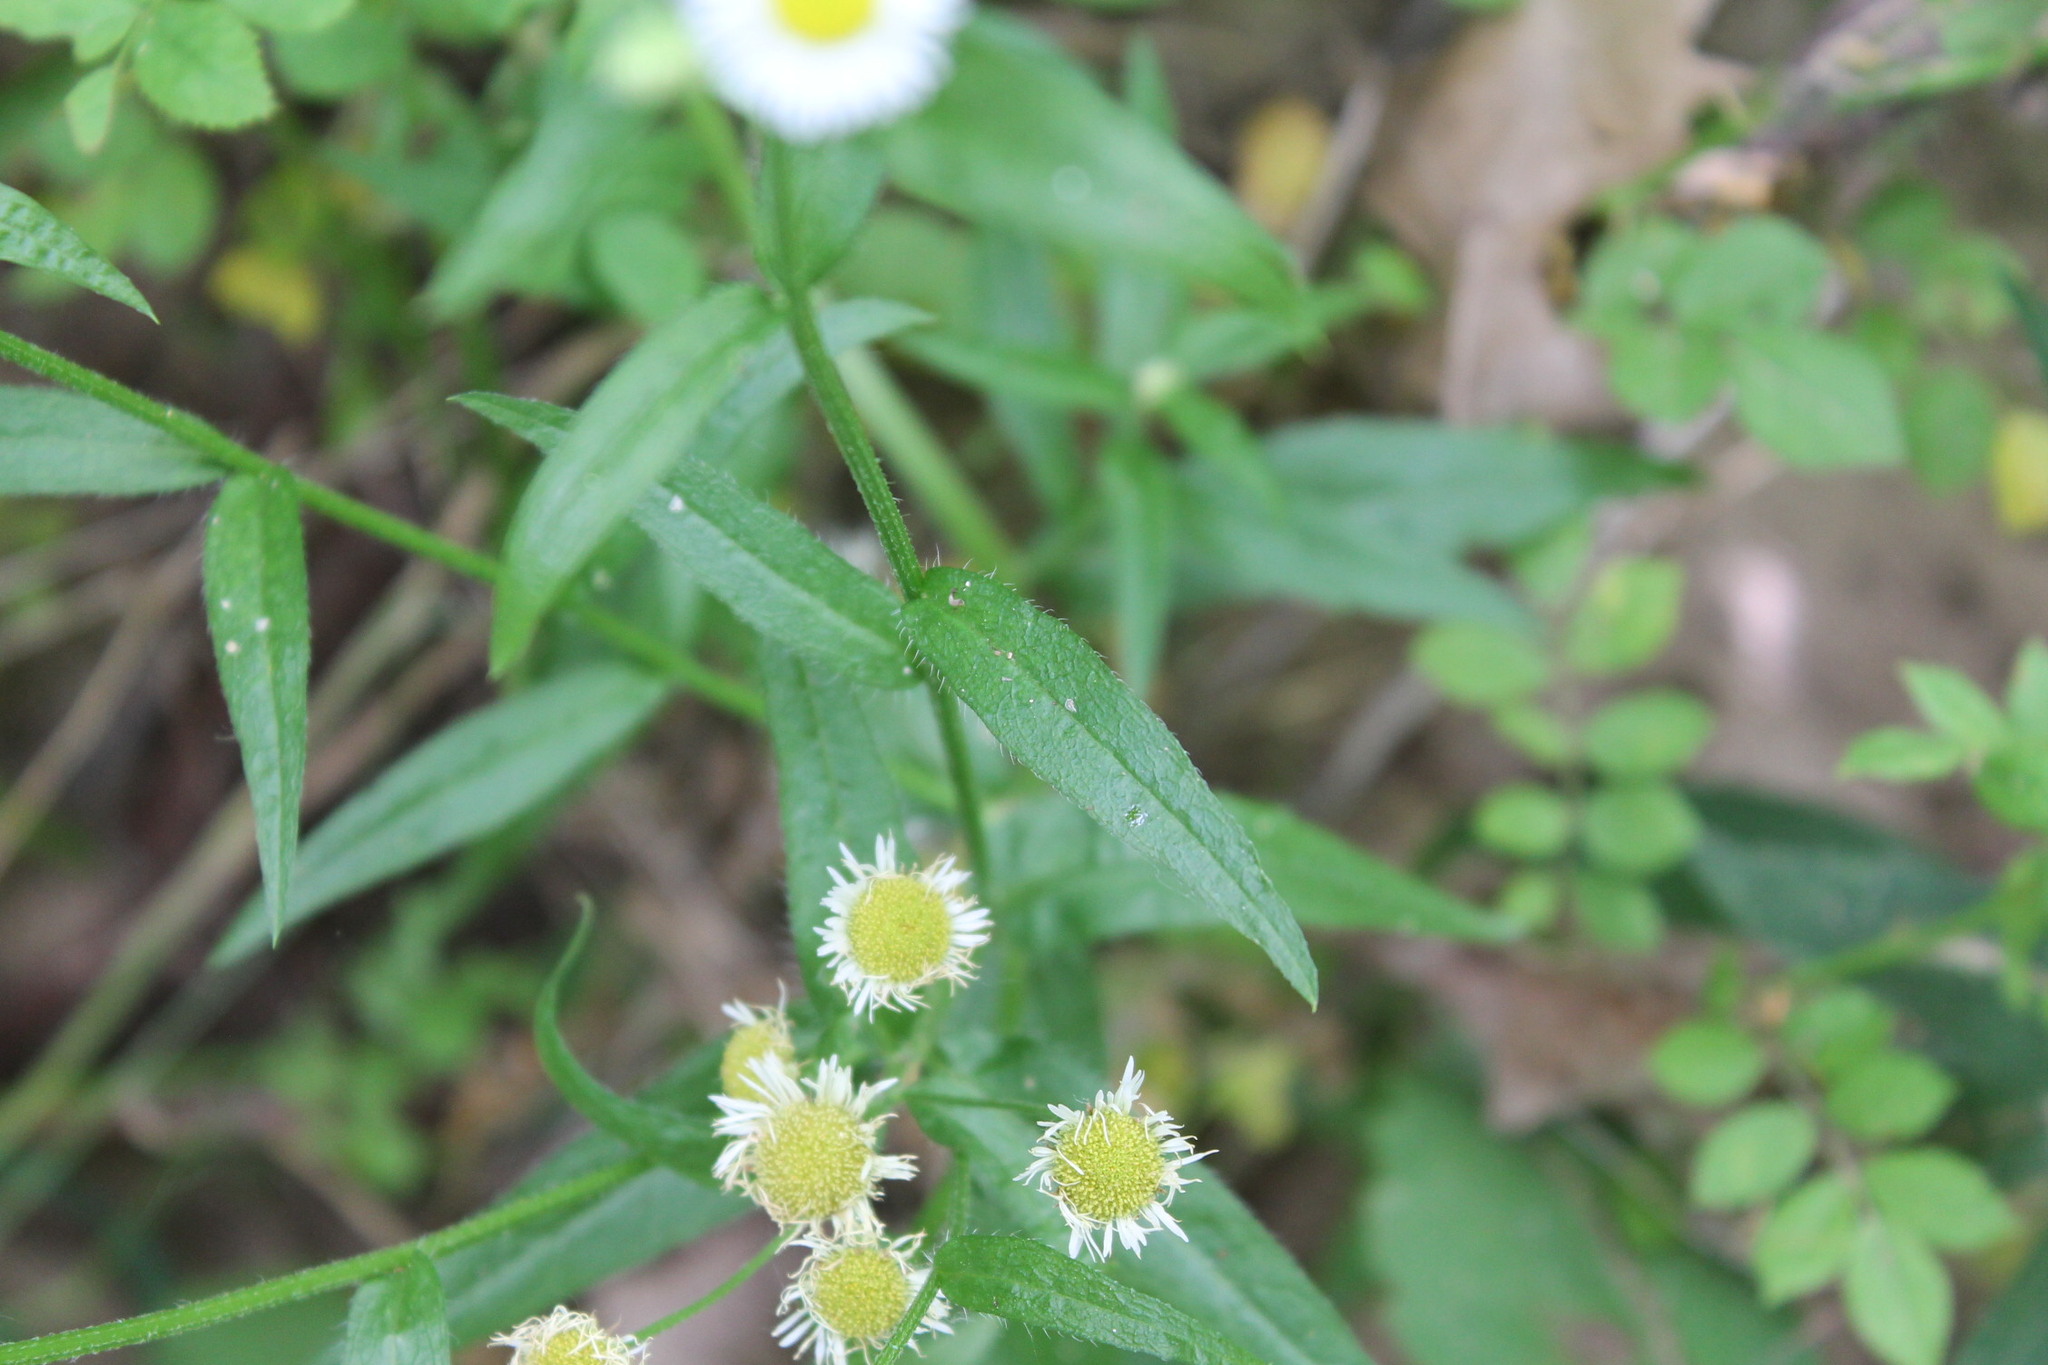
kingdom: Plantae
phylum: Tracheophyta
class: Magnoliopsida
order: Asterales
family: Asteraceae
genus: Erigeron
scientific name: Erigeron strigosus
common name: Common eastern fleabane
